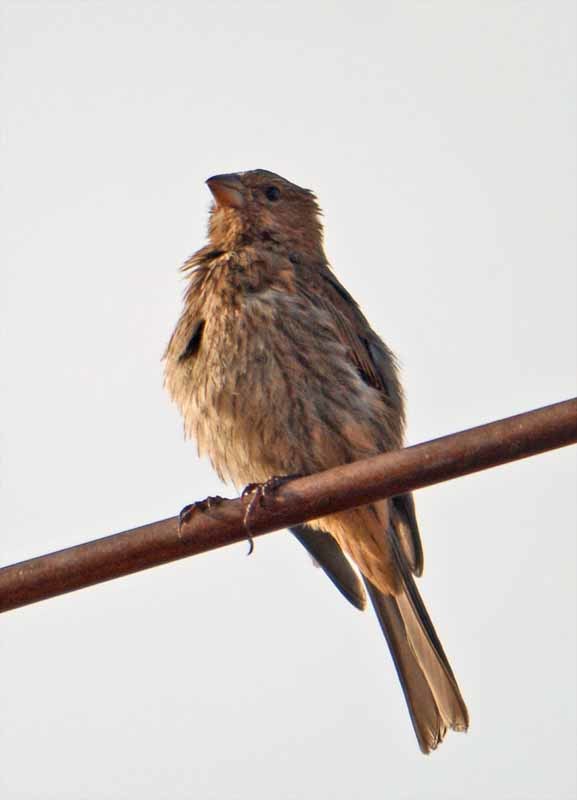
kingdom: Animalia
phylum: Chordata
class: Aves
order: Passeriformes
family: Fringillidae
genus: Haemorhous
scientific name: Haemorhous mexicanus
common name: House finch
